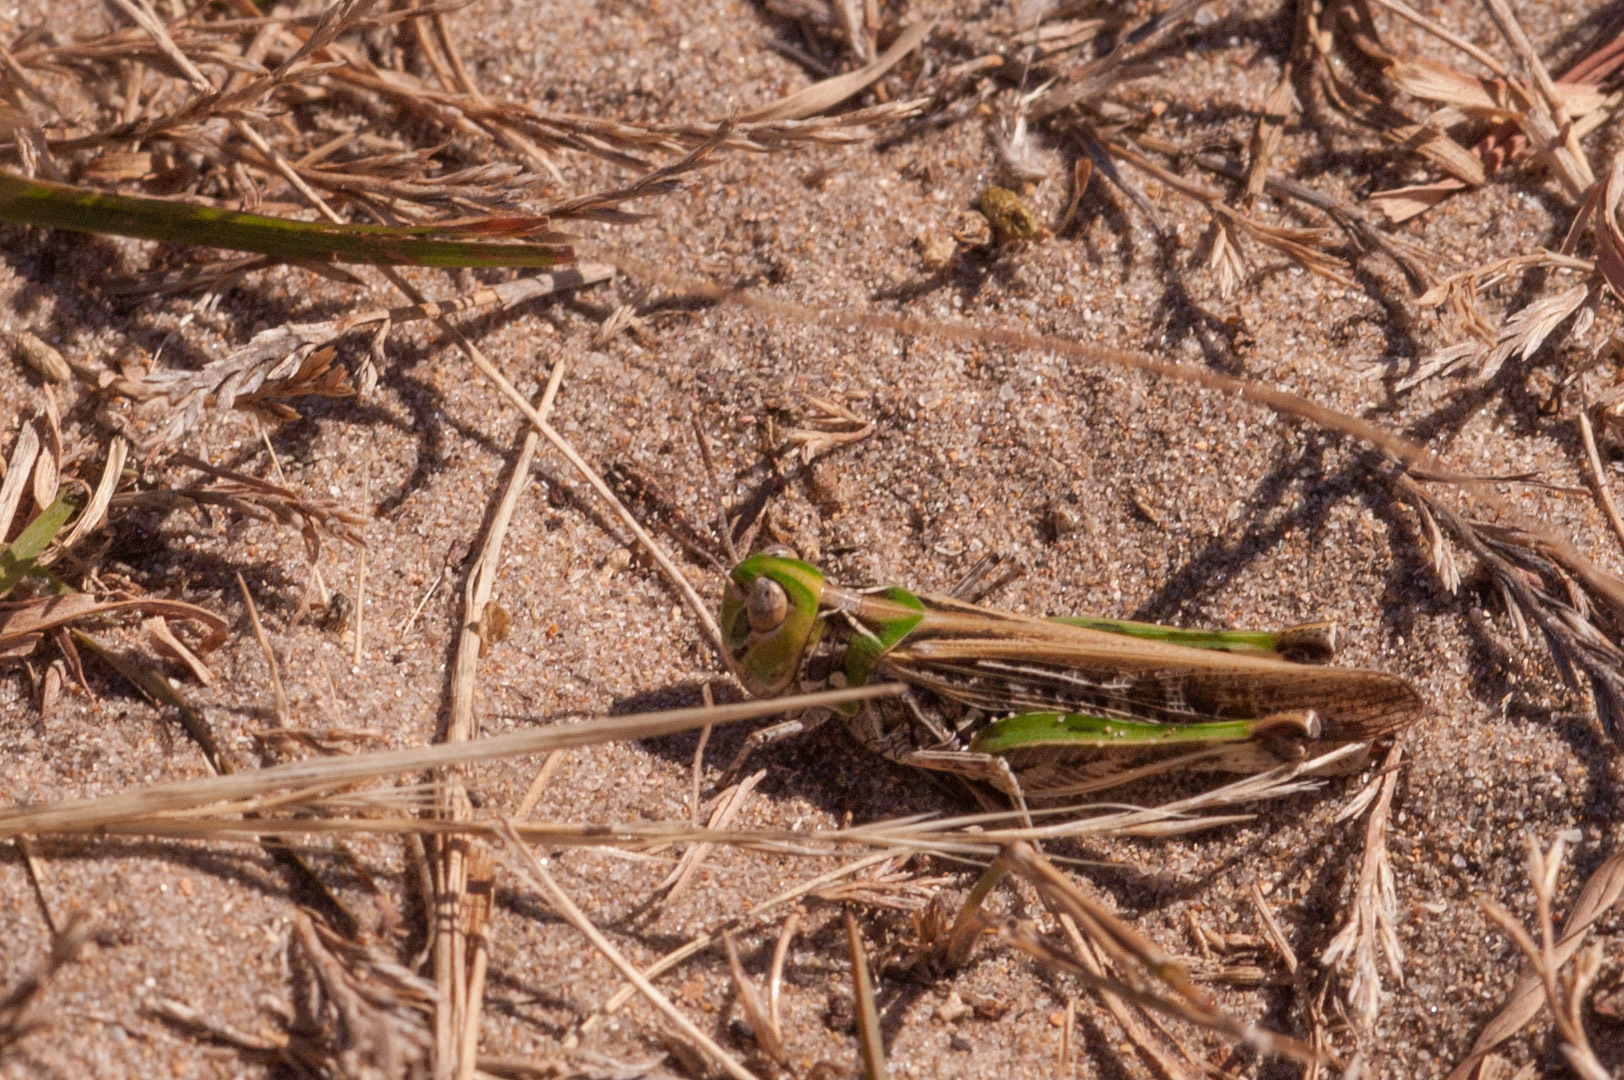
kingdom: Animalia
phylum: Arthropoda
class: Insecta
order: Orthoptera
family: Acrididae
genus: Austroicetes
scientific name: Austroicetes vulgaris
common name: Southeastern austroicetes
